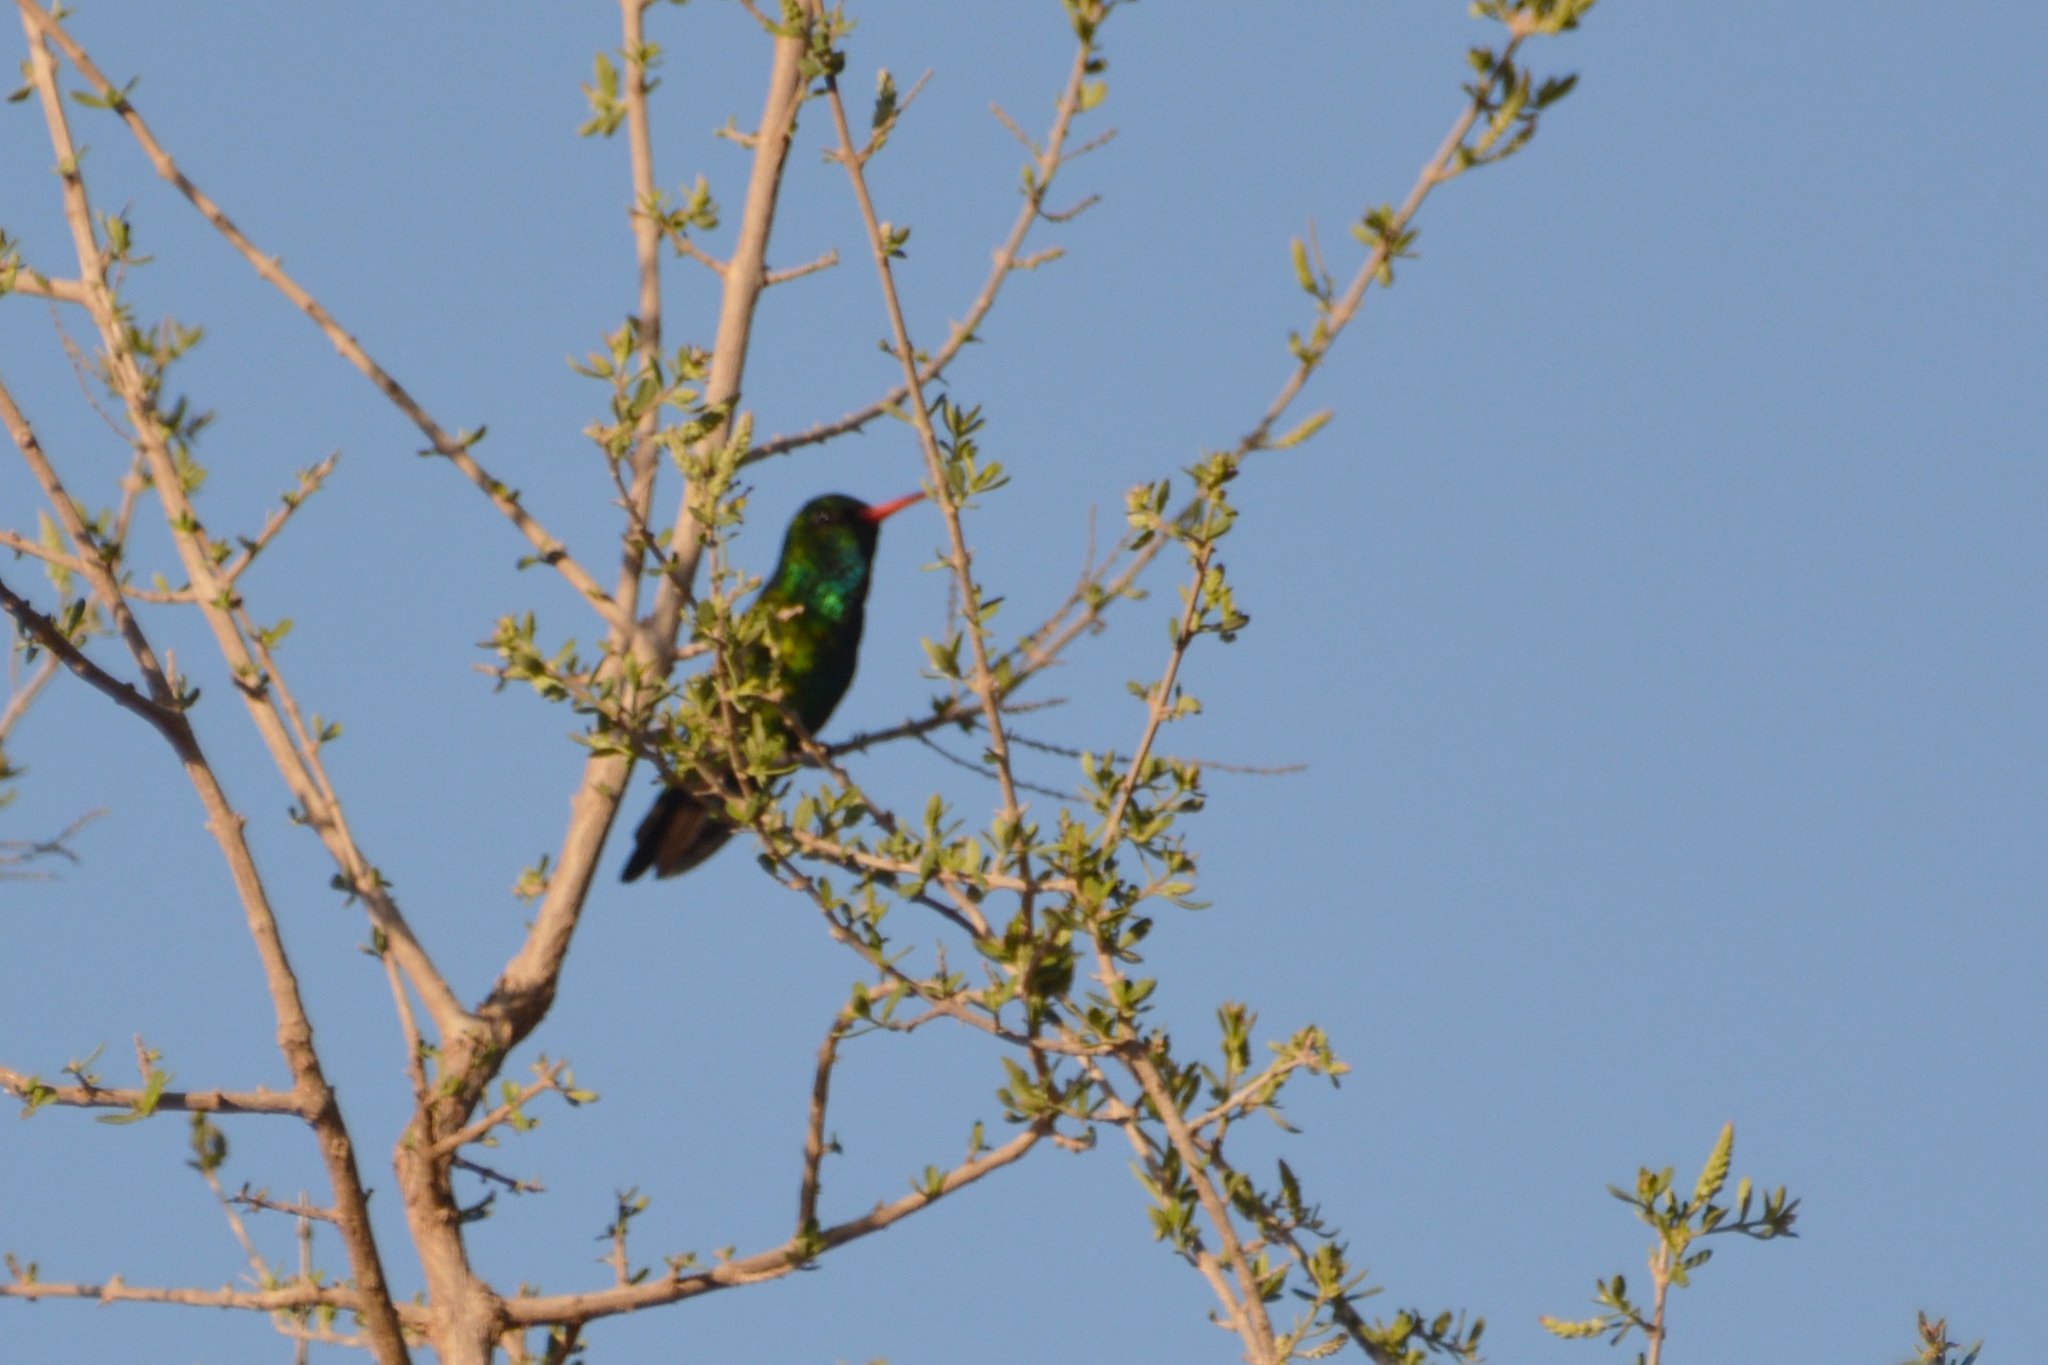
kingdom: Animalia
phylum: Chordata
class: Aves
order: Apodiformes
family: Trochilidae
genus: Chlorostilbon
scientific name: Chlorostilbon lucidus
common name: Glittering-bellied emerald
